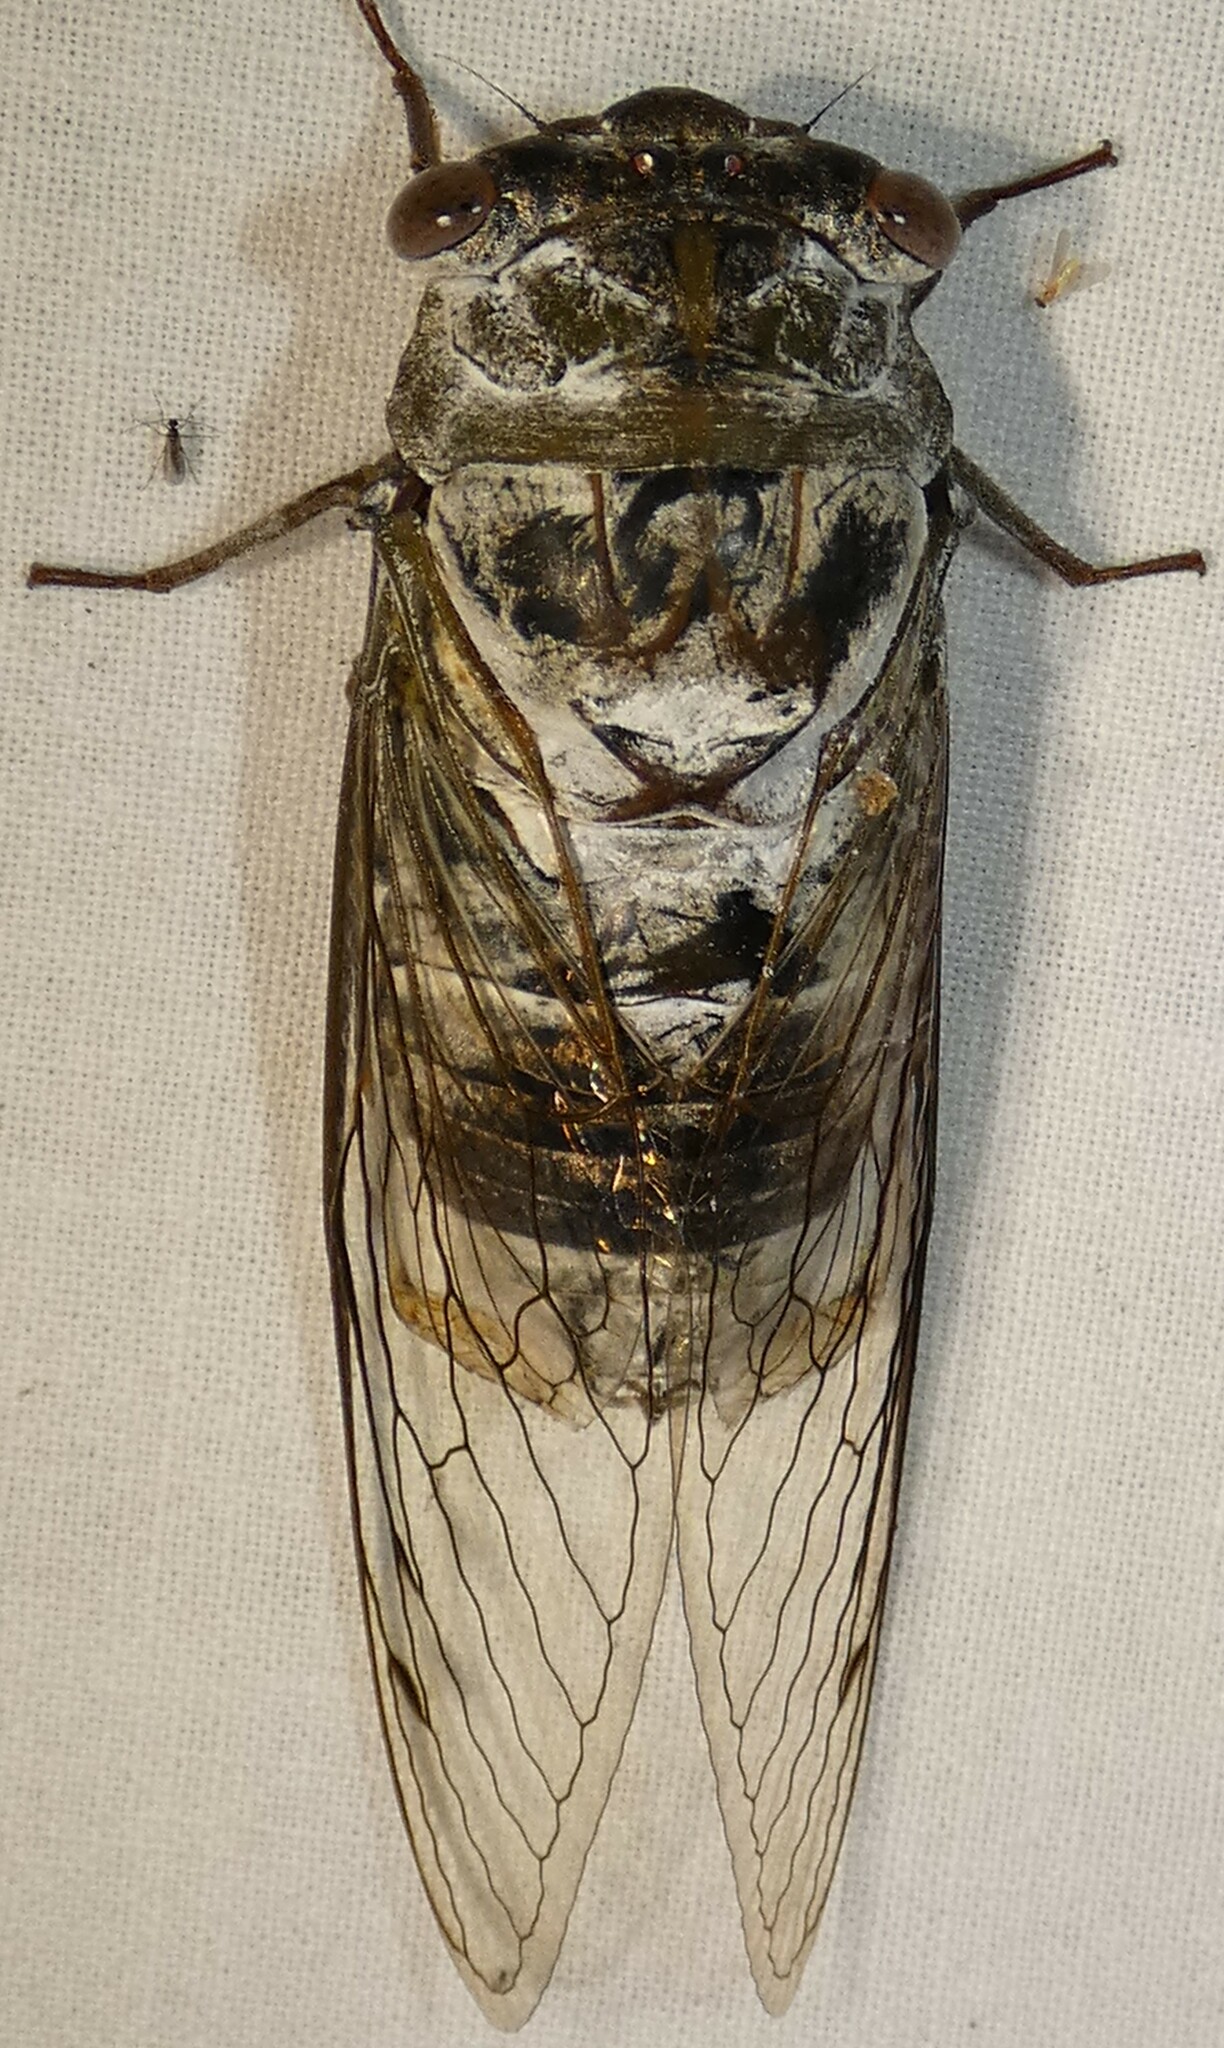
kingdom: Animalia
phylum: Arthropoda
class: Insecta
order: Hemiptera
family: Cicadidae
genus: Diceroprocta
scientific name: Diceroprocta grossa
